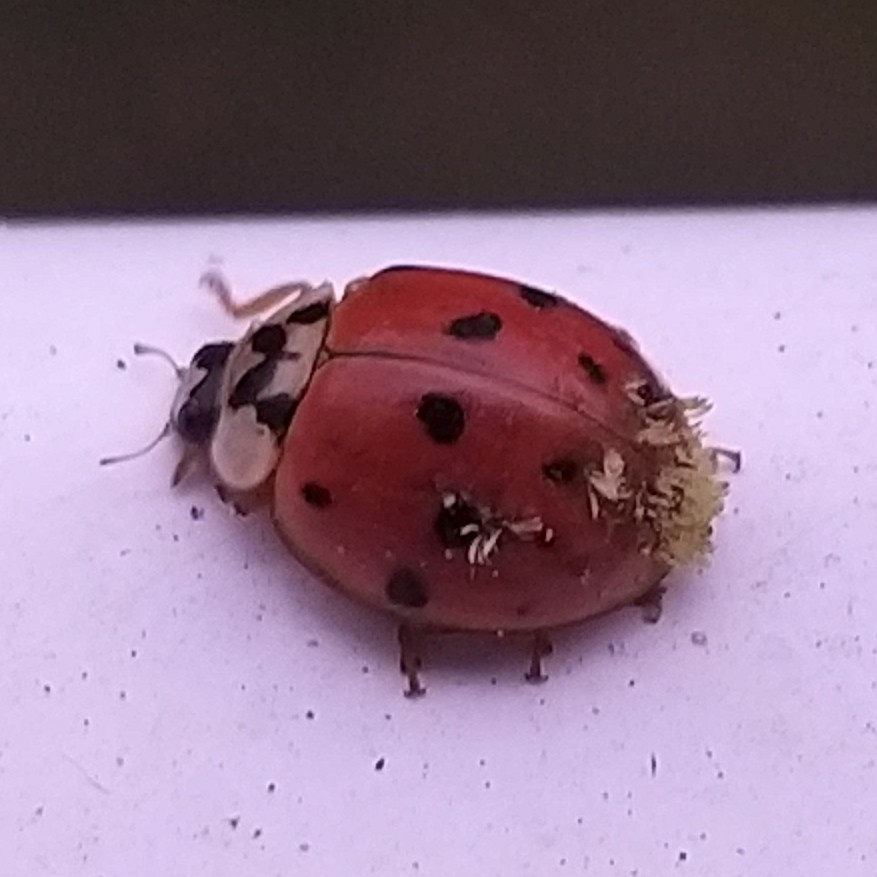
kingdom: Animalia
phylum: Arthropoda
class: Insecta
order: Coleoptera
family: Coccinellidae
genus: Harmonia
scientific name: Harmonia axyridis
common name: Harlequin ladybird
